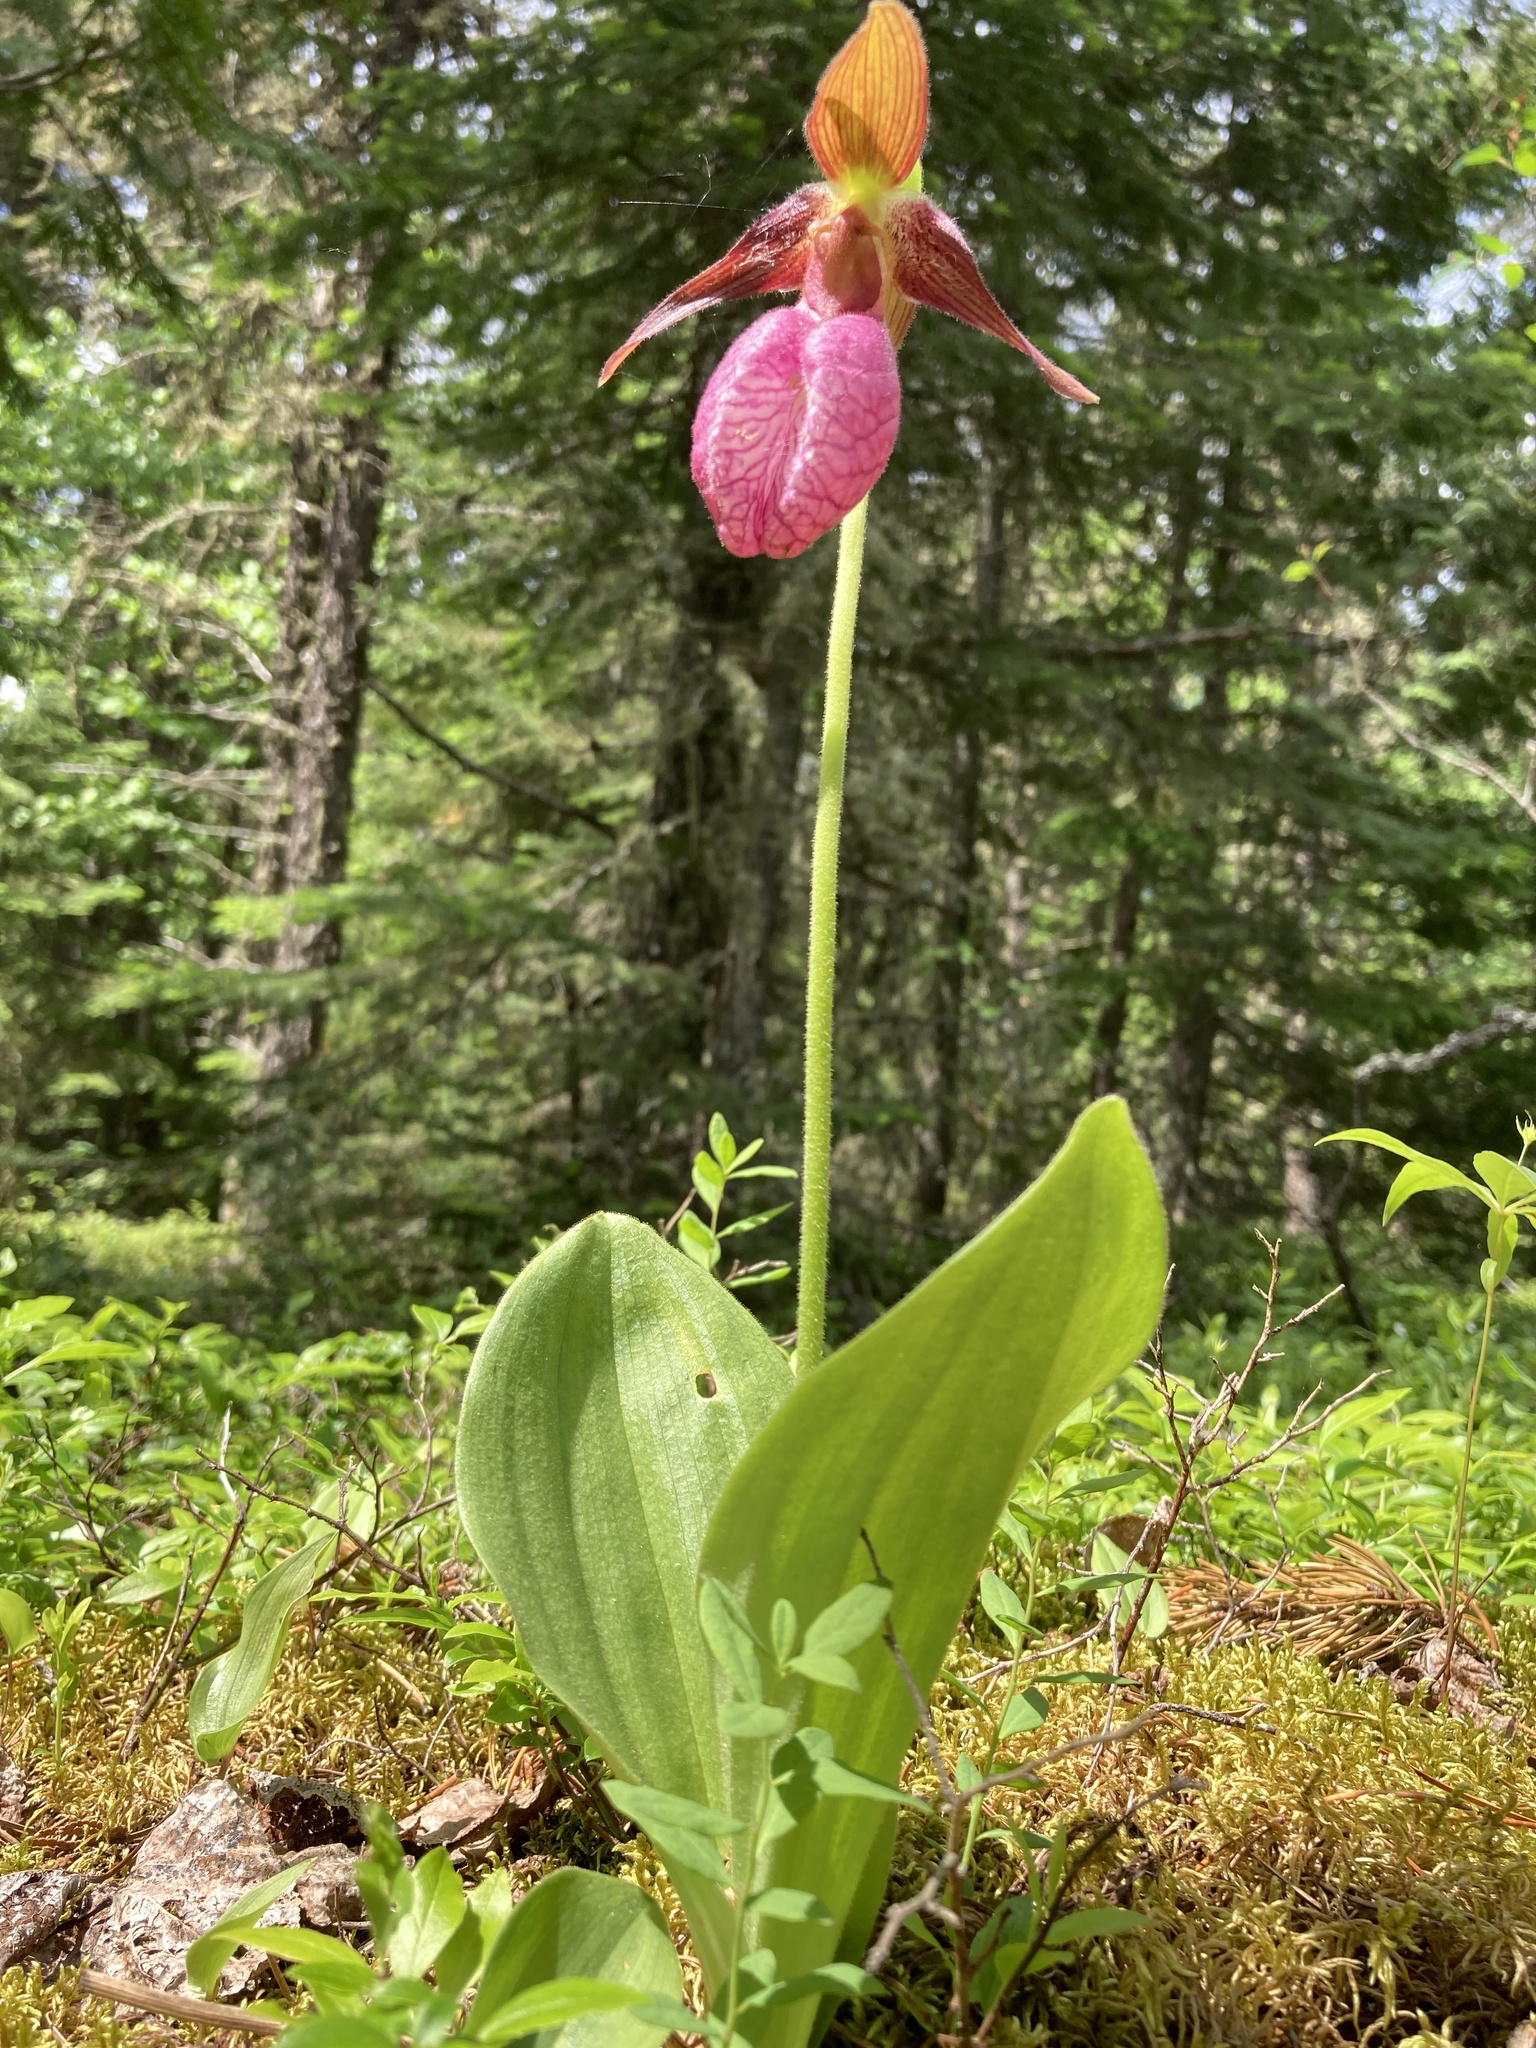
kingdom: Plantae
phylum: Tracheophyta
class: Liliopsida
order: Asparagales
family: Orchidaceae
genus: Cypripedium
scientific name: Cypripedium acaule
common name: Pink lady's-slipper
